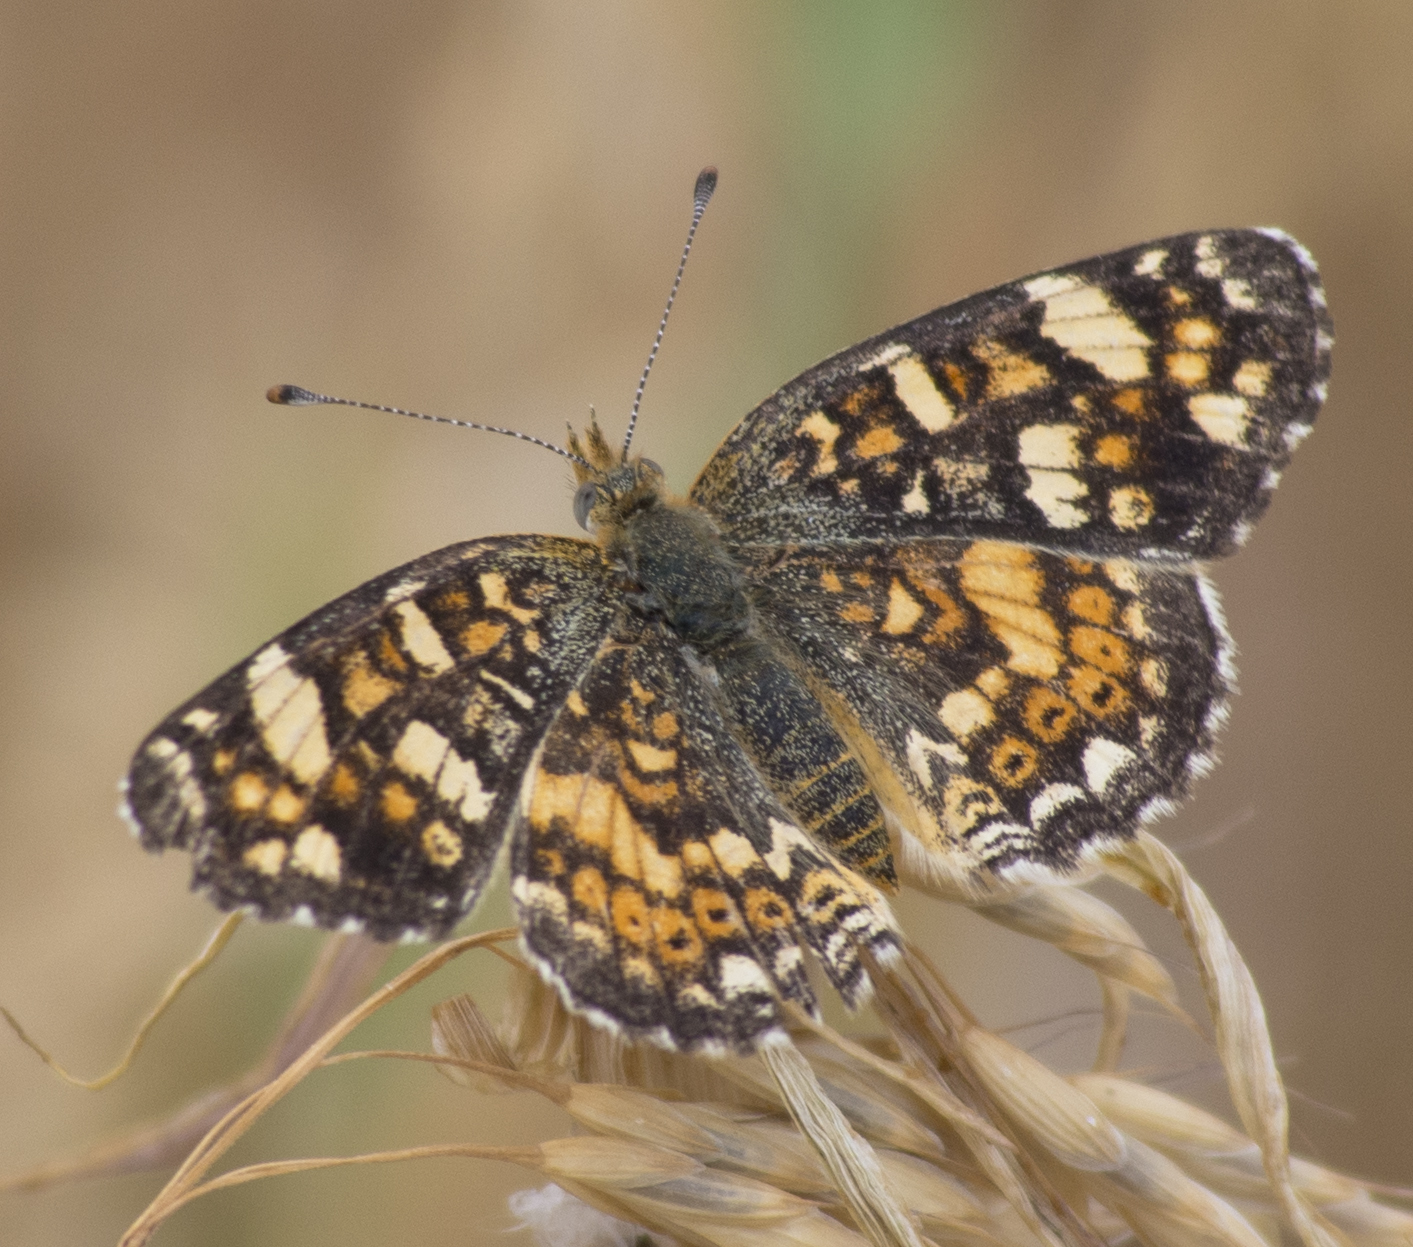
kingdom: Animalia
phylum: Arthropoda
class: Insecta
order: Lepidoptera
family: Nymphalidae
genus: Phyciodes
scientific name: Phyciodes tharos
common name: Pearl crescent
